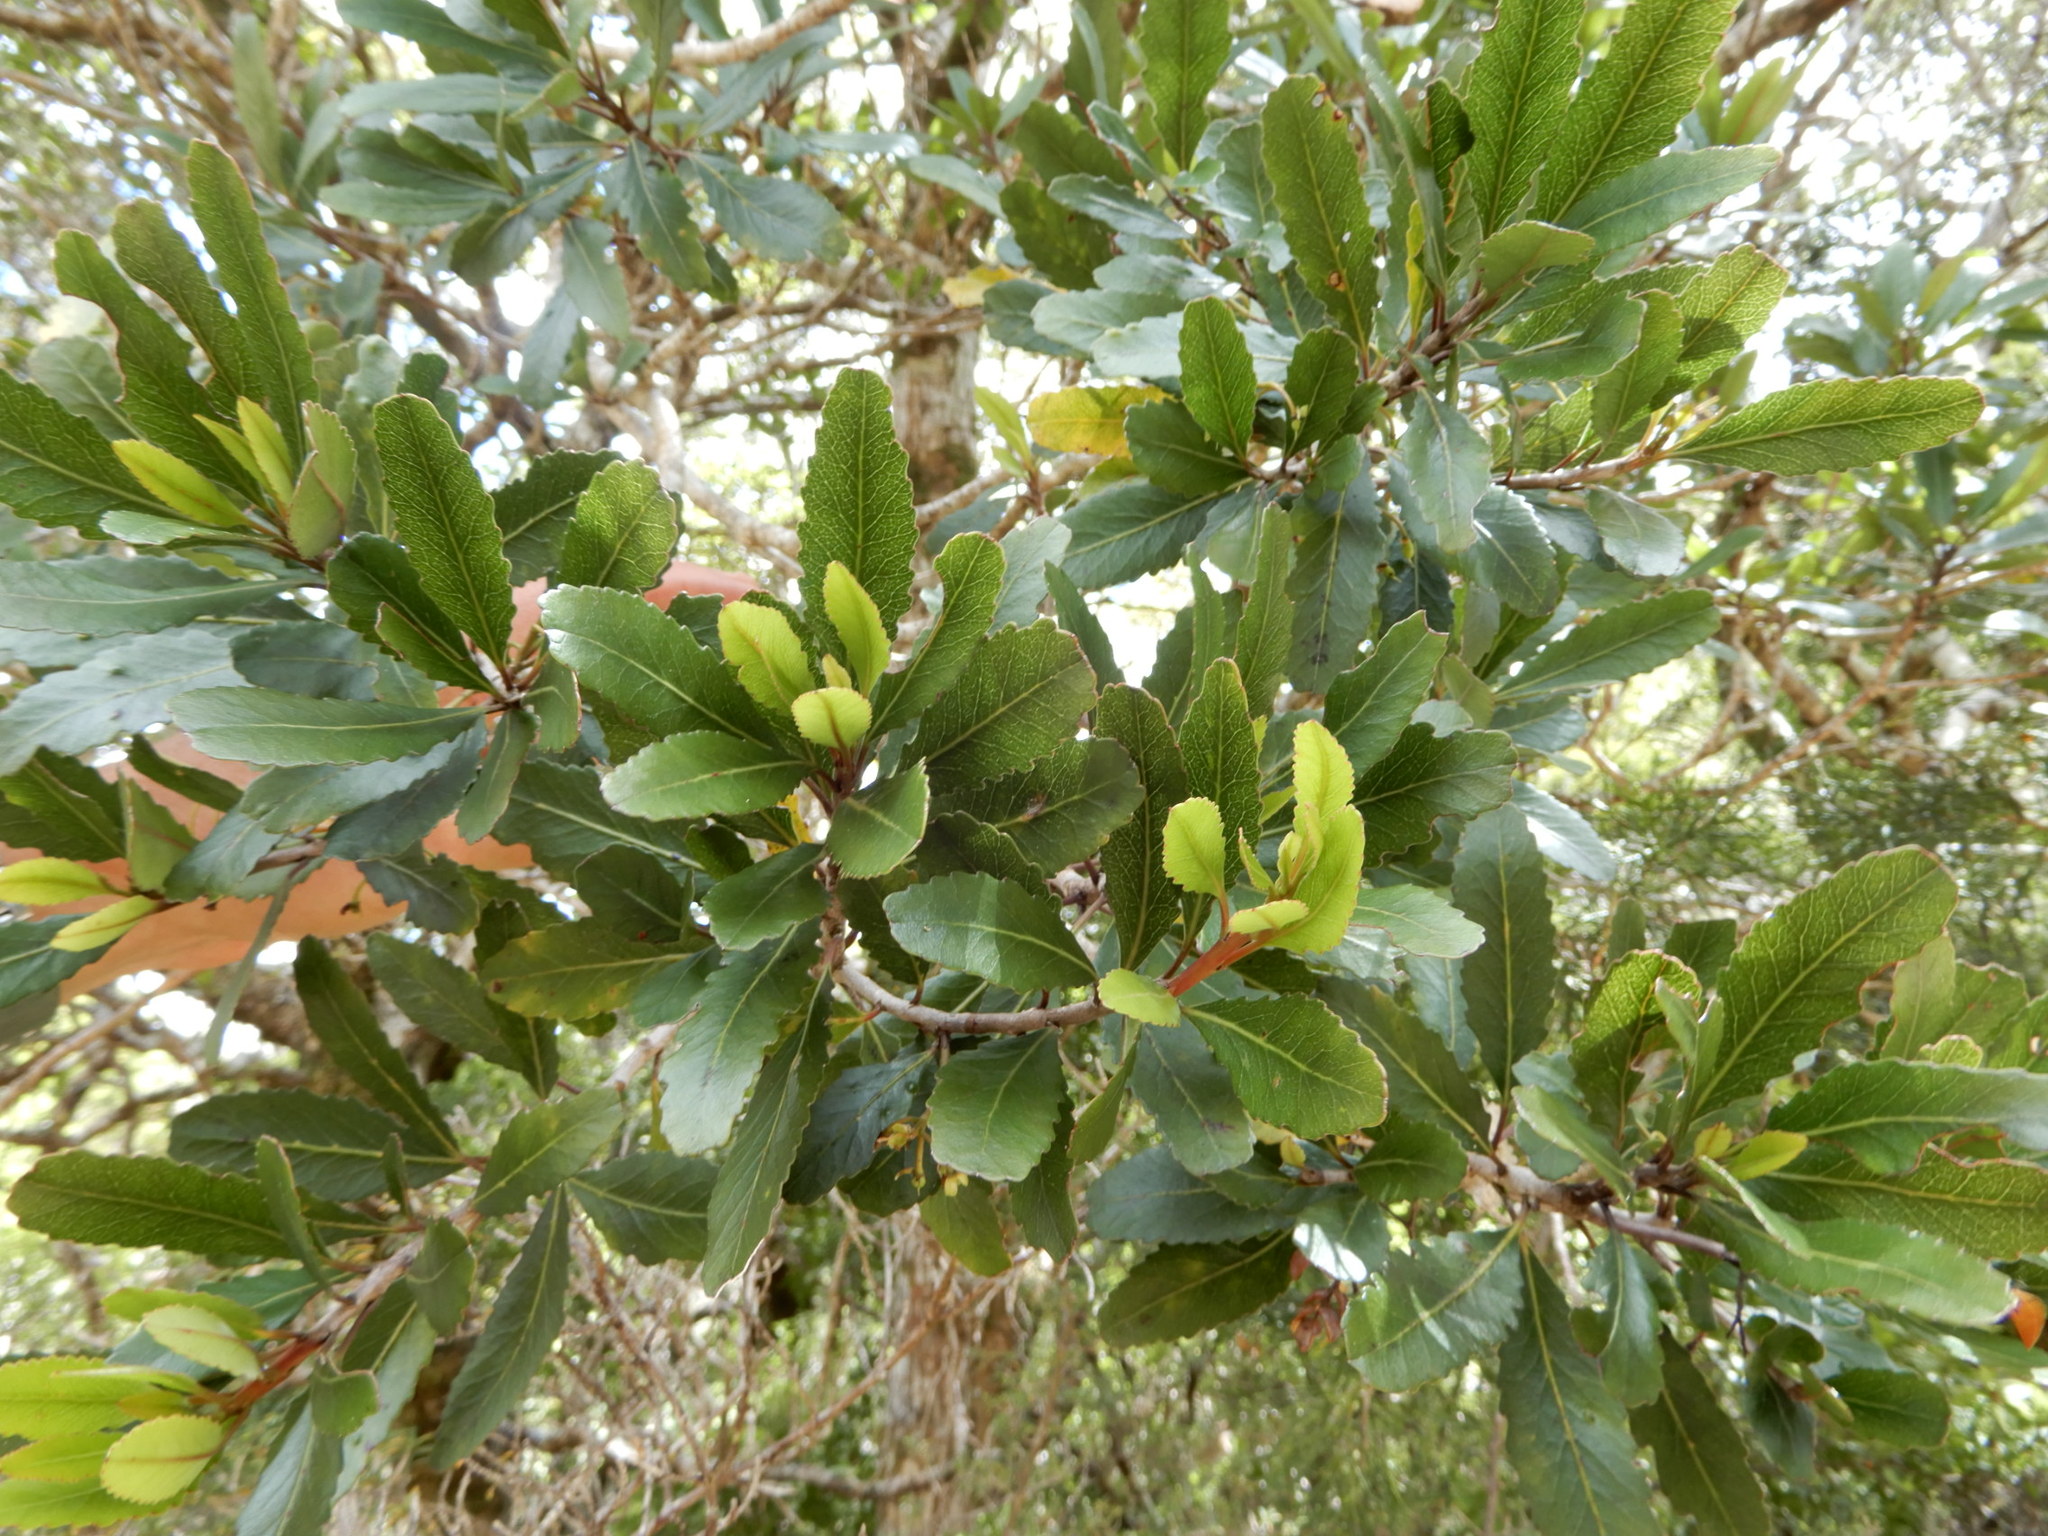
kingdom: Plantae
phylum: Tracheophyta
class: Magnoliopsida
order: Oxalidales
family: Elaeocarpaceae
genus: Elaeocarpus
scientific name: Elaeocarpus hookerianus
